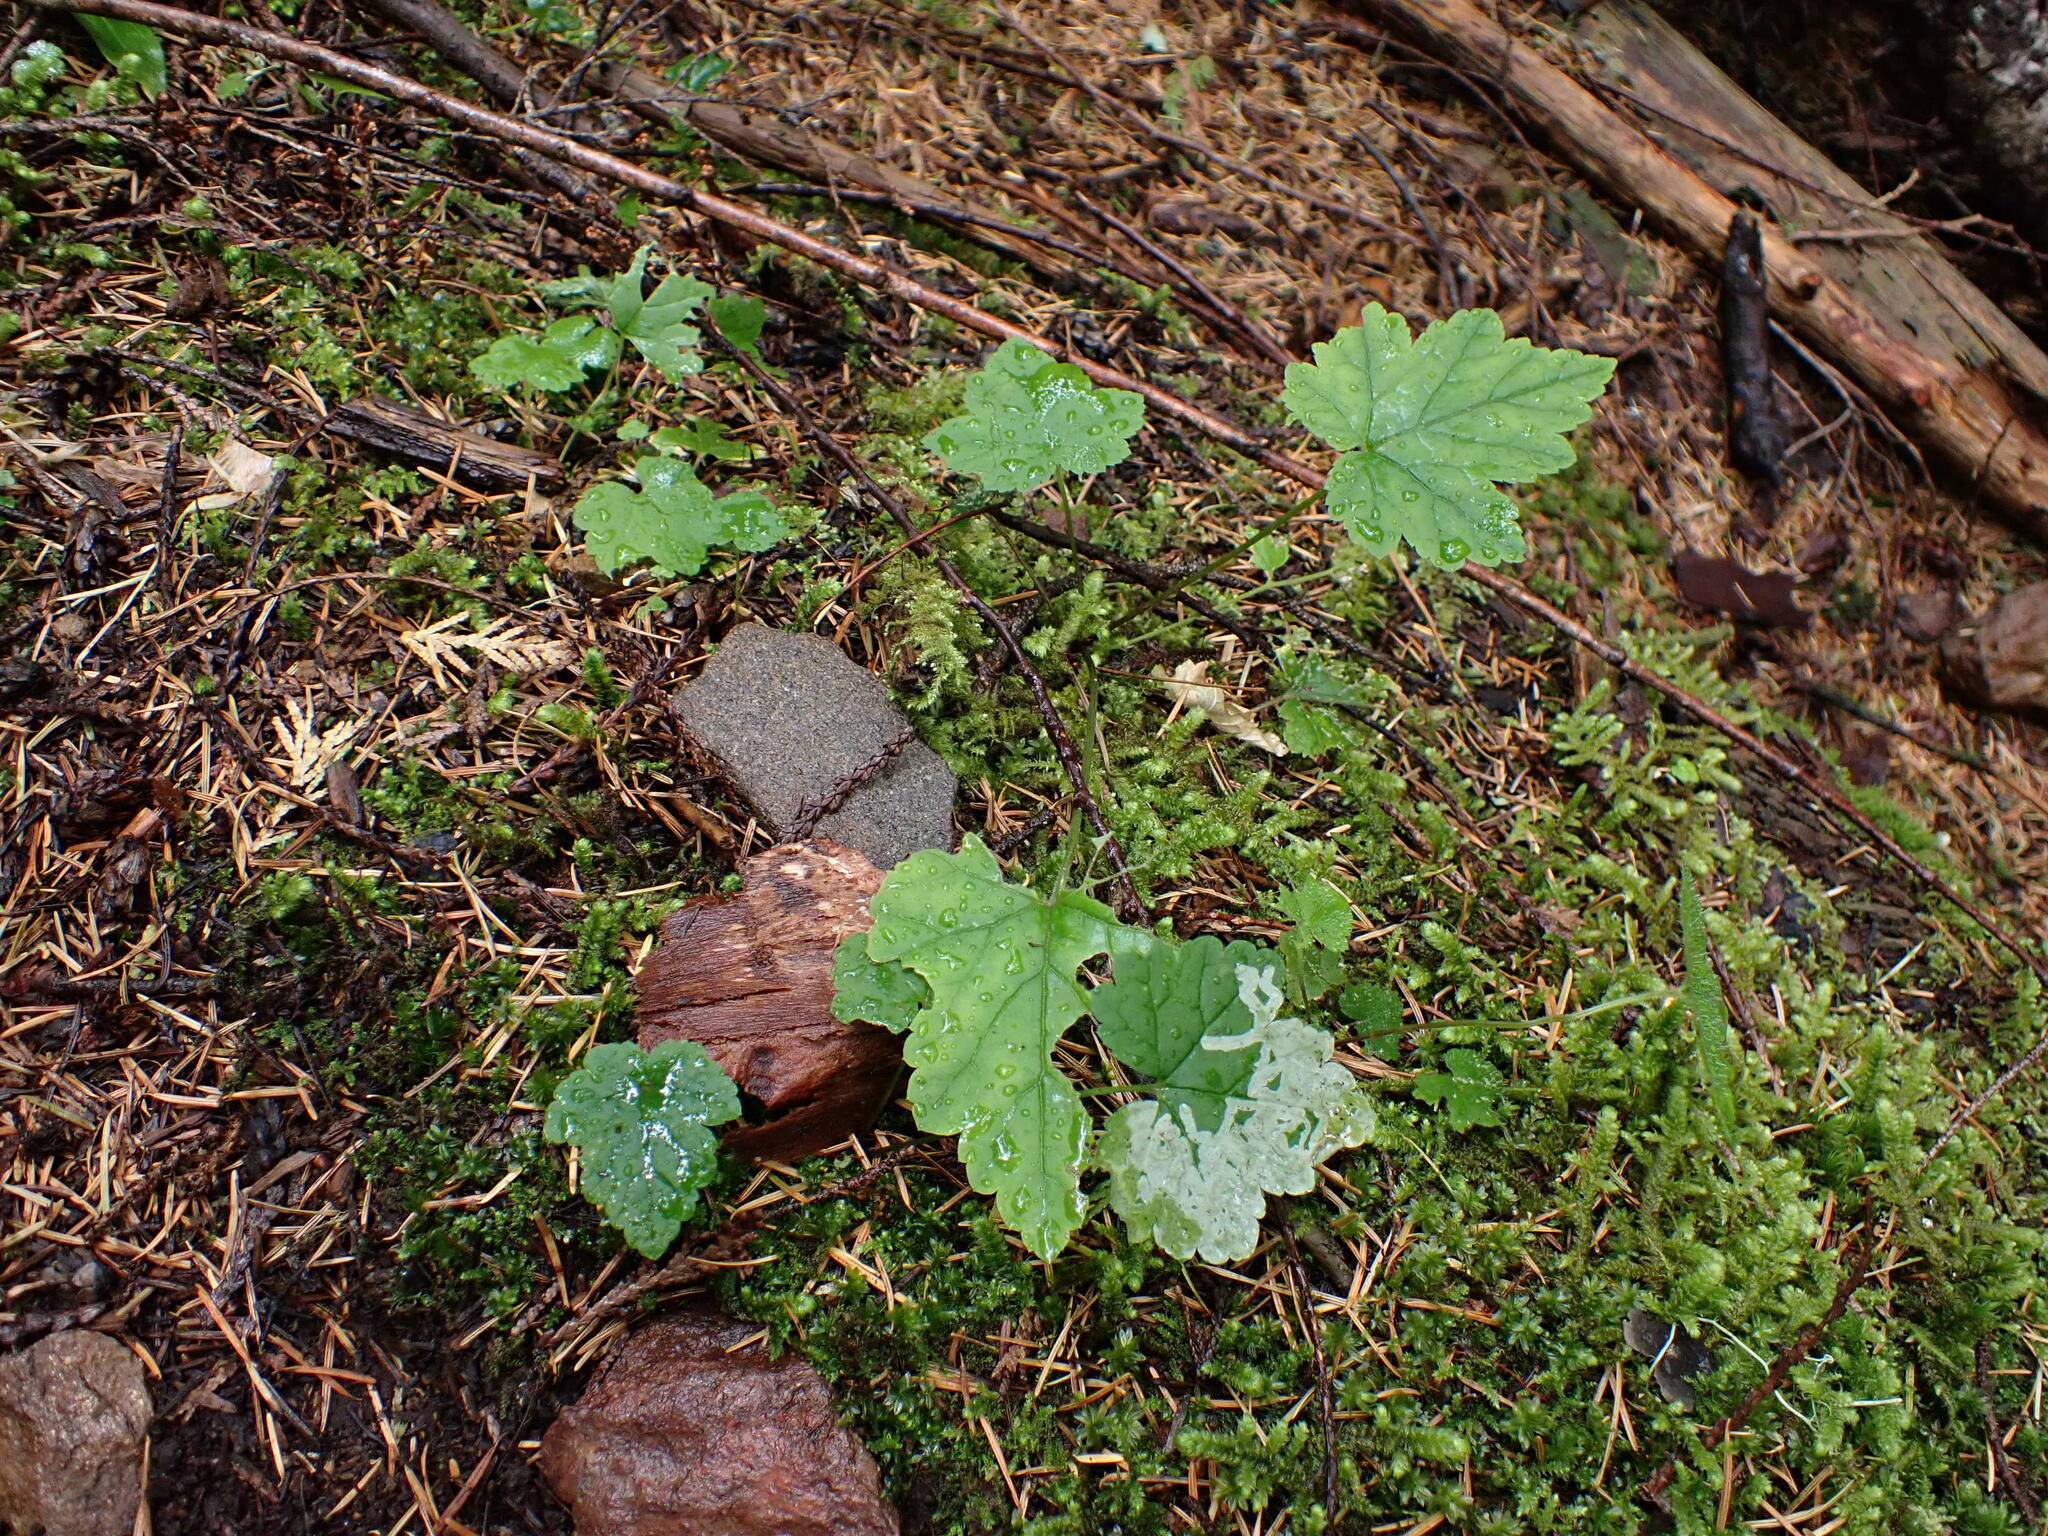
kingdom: Plantae
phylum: Tracheophyta
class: Magnoliopsida
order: Saxifragales
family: Saxifragaceae
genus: Tiarella
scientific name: Tiarella trifoliata
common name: Sugar-scoop
